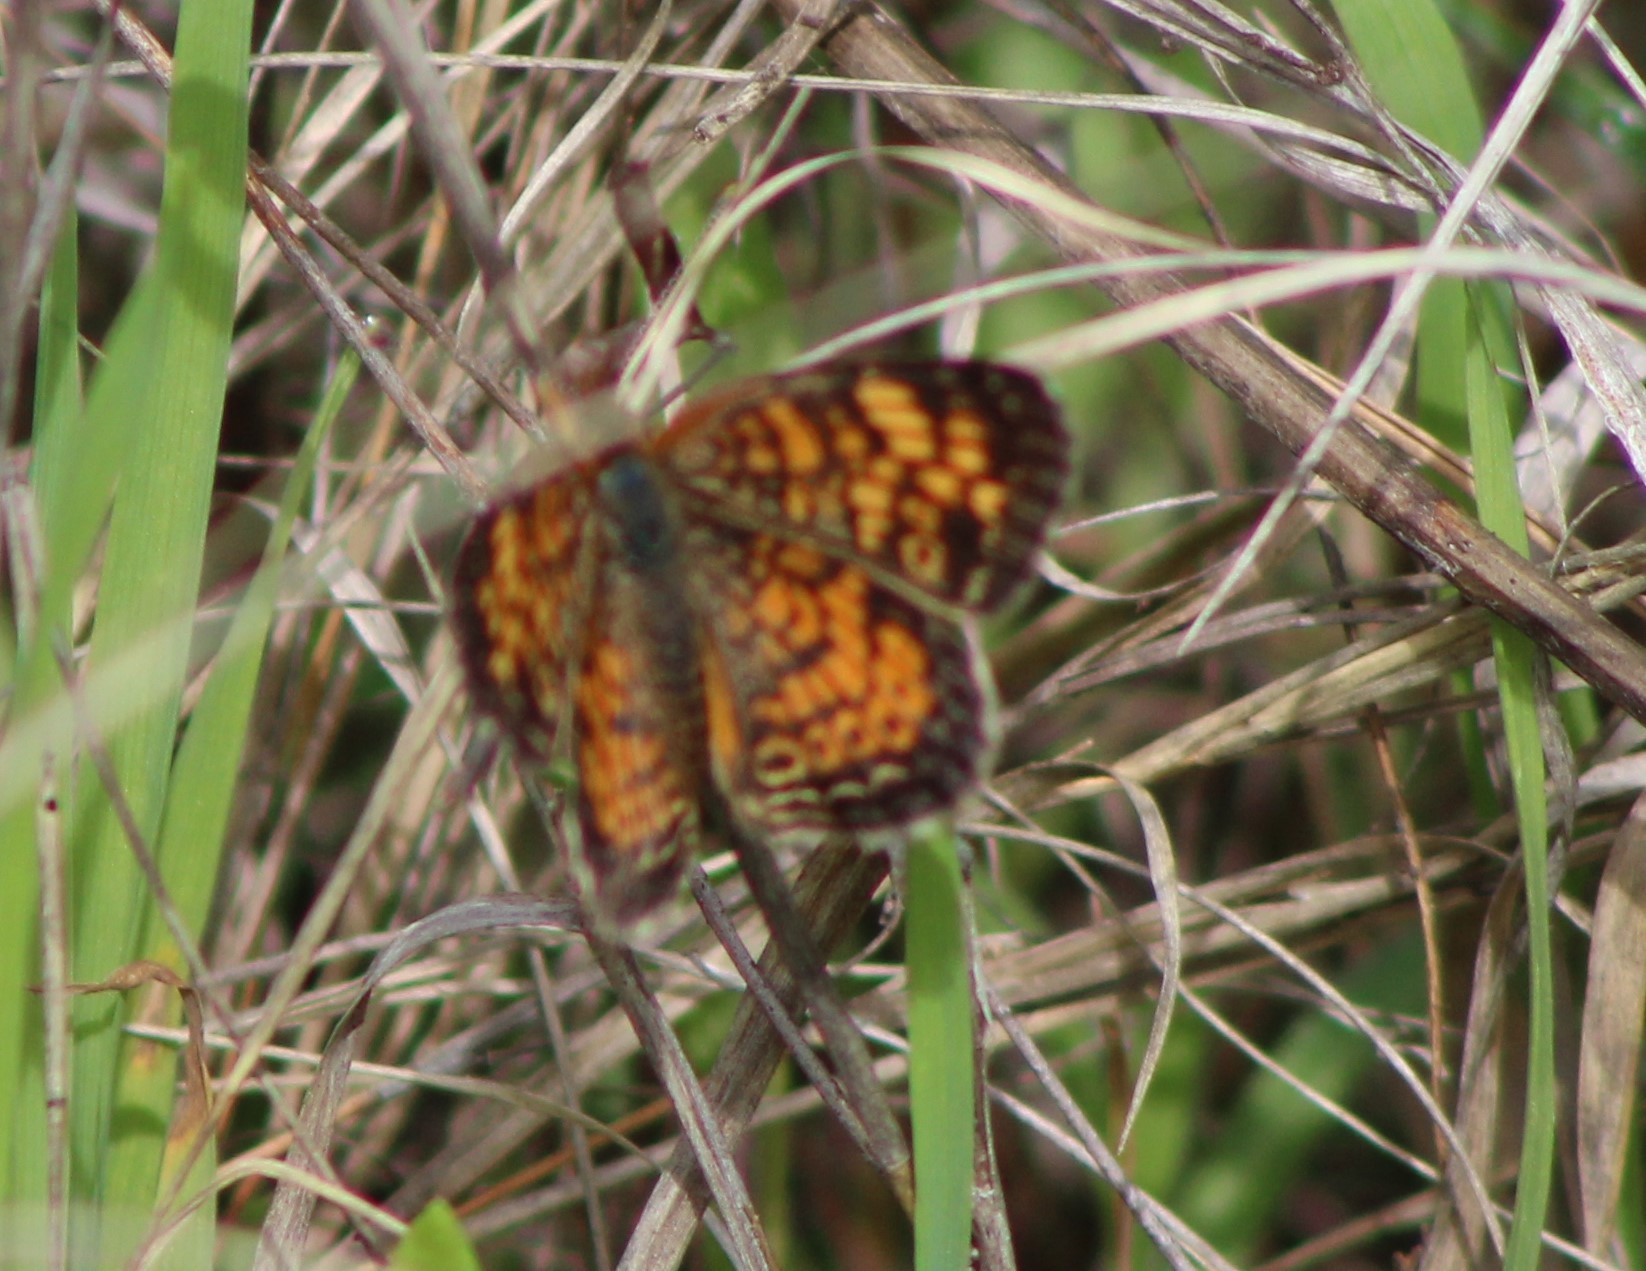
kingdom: Animalia
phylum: Arthropoda
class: Insecta
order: Lepidoptera
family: Nymphalidae
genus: Phyciodes
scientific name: Phyciodes vesta
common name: Vesta crescent
